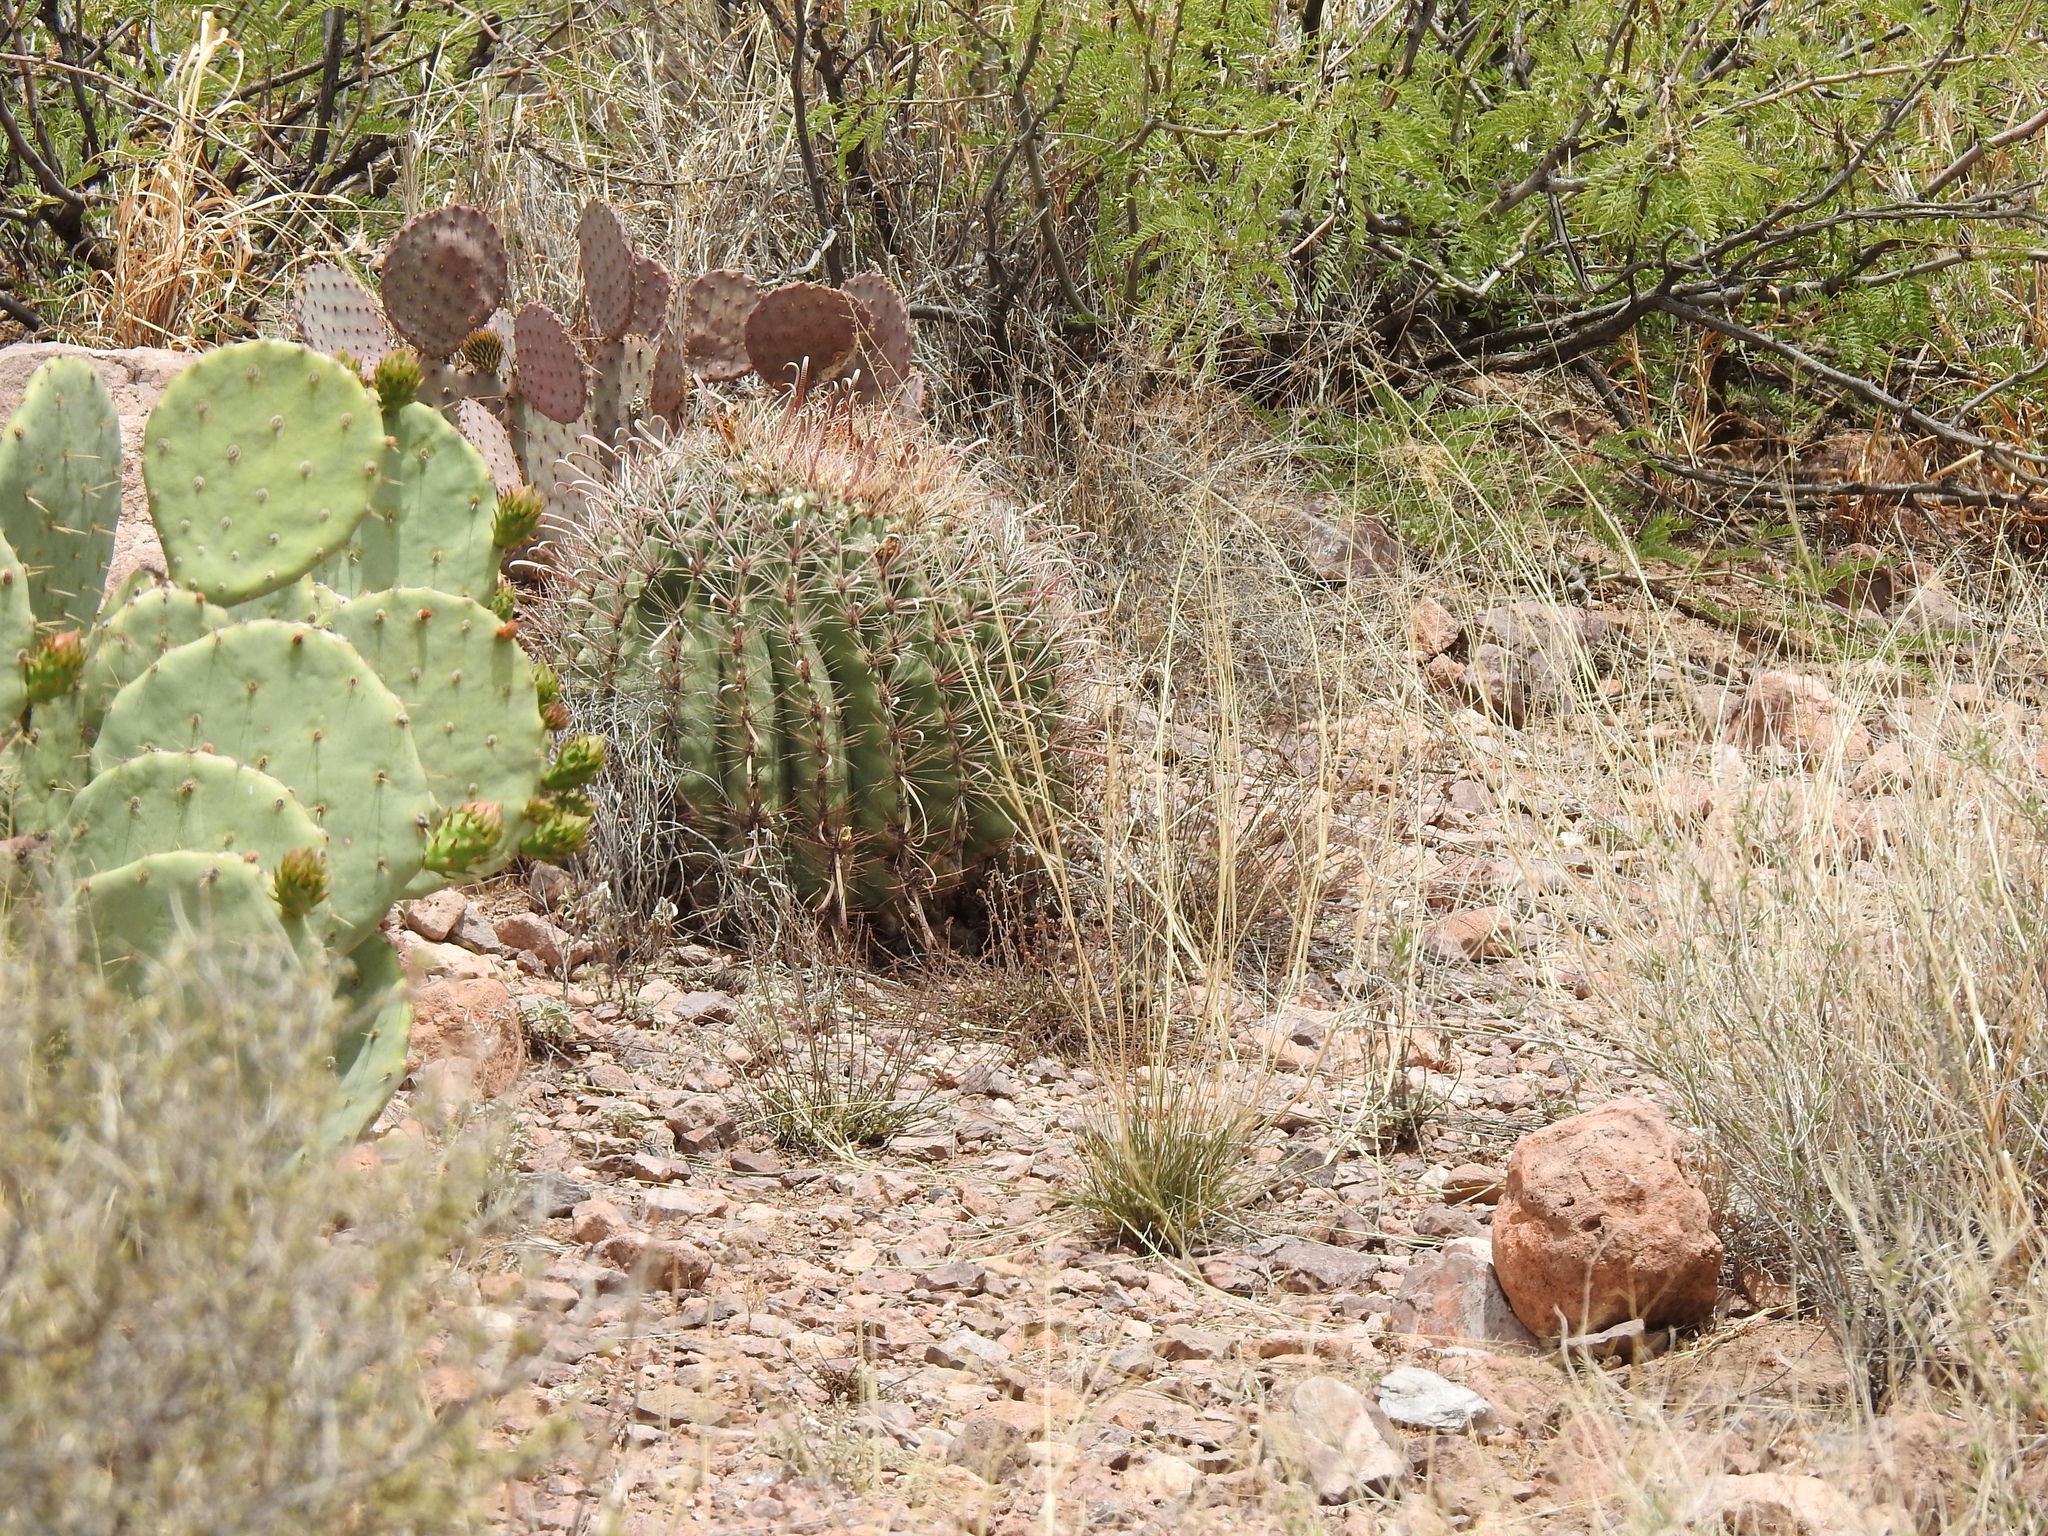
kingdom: Plantae
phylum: Tracheophyta
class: Magnoliopsida
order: Caryophyllales
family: Cactaceae
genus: Ferocactus
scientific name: Ferocactus wislizeni
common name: Candy barrel cactus
